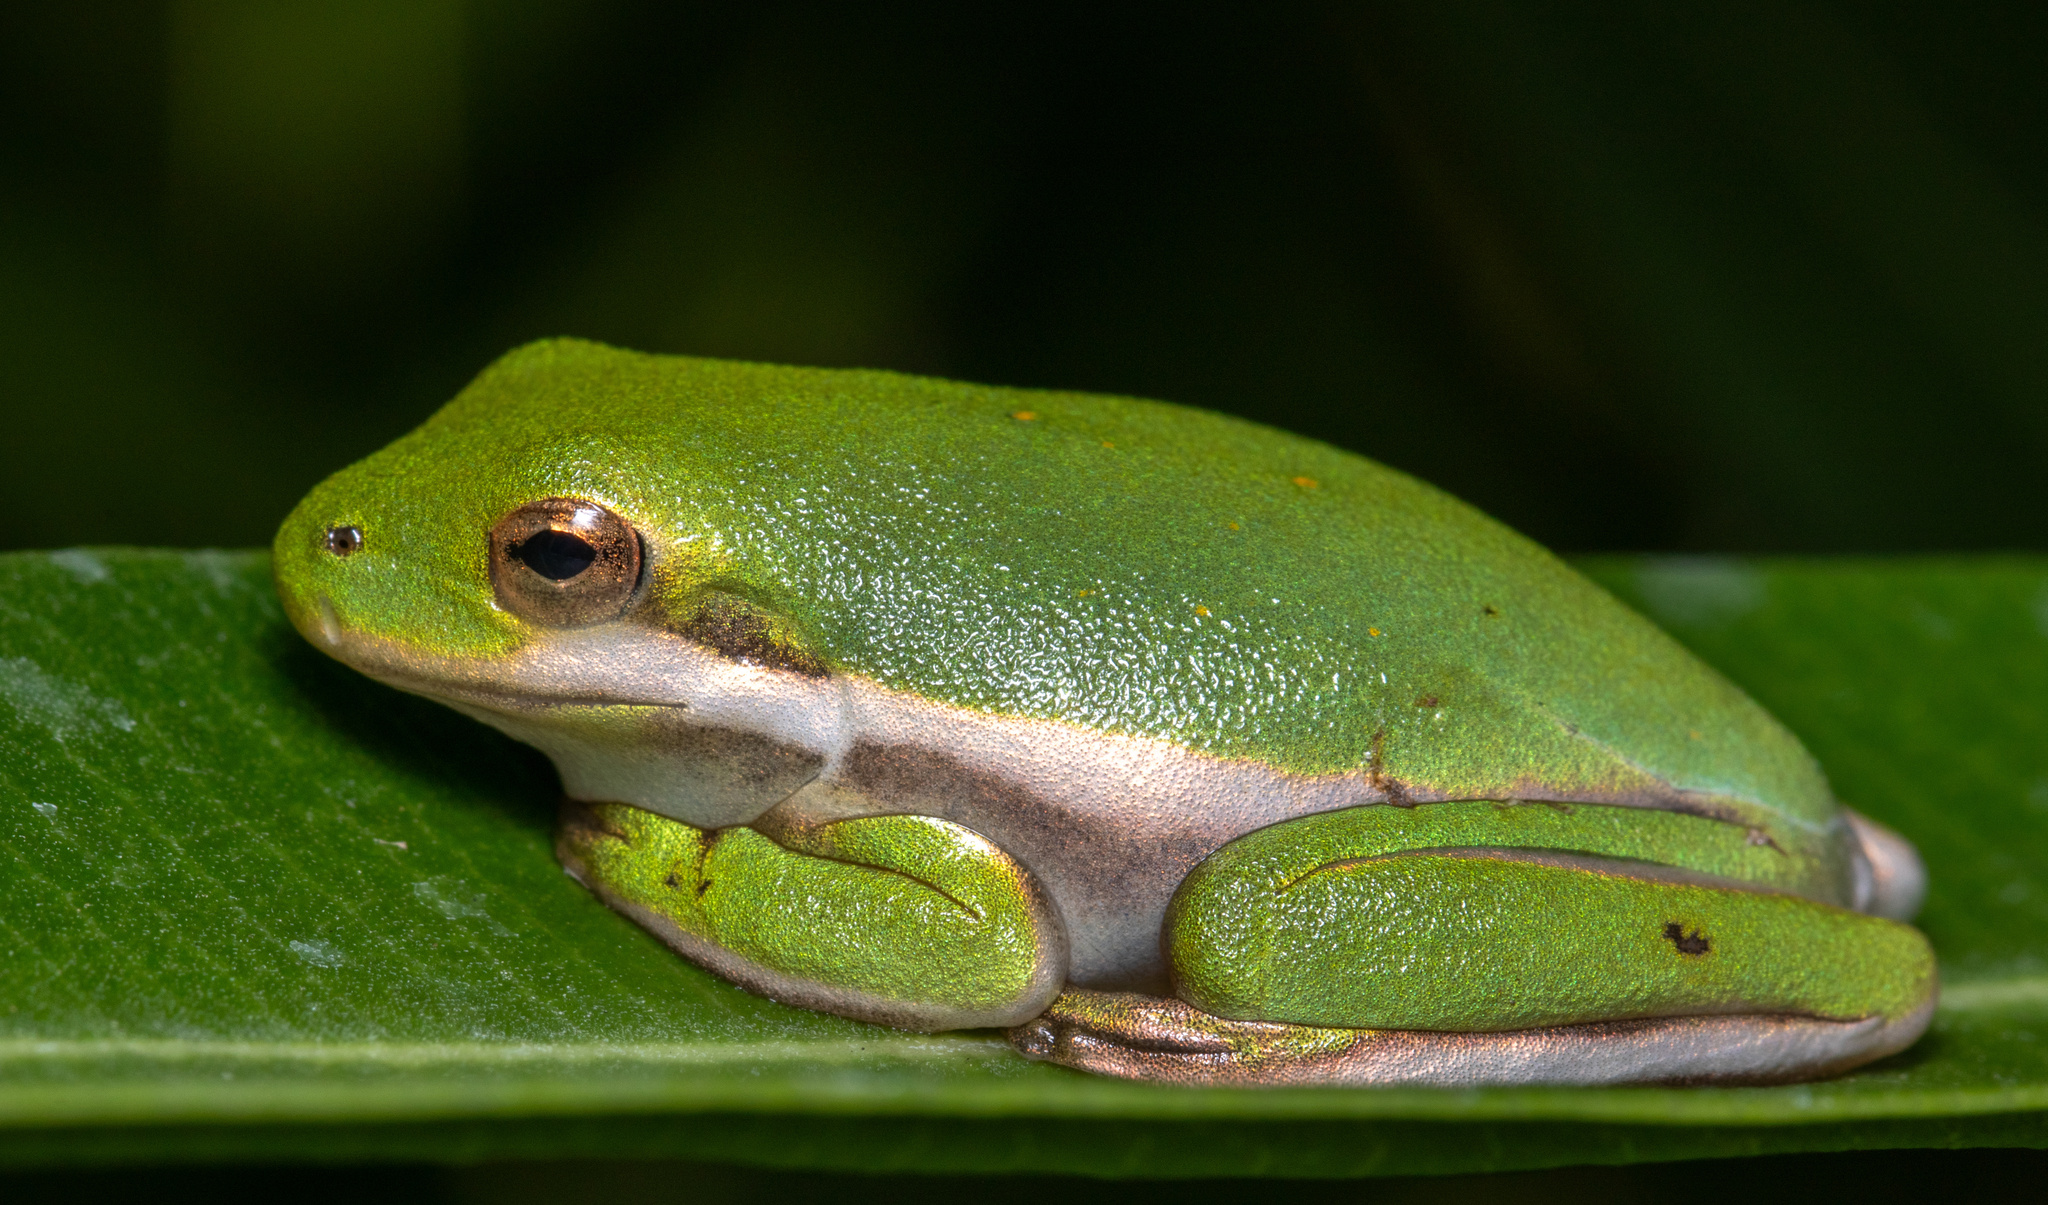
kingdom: Animalia
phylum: Chordata
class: Amphibia
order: Anura
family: Hylidae
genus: Dryophytes
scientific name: Dryophytes cinereus
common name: Green treefrog
